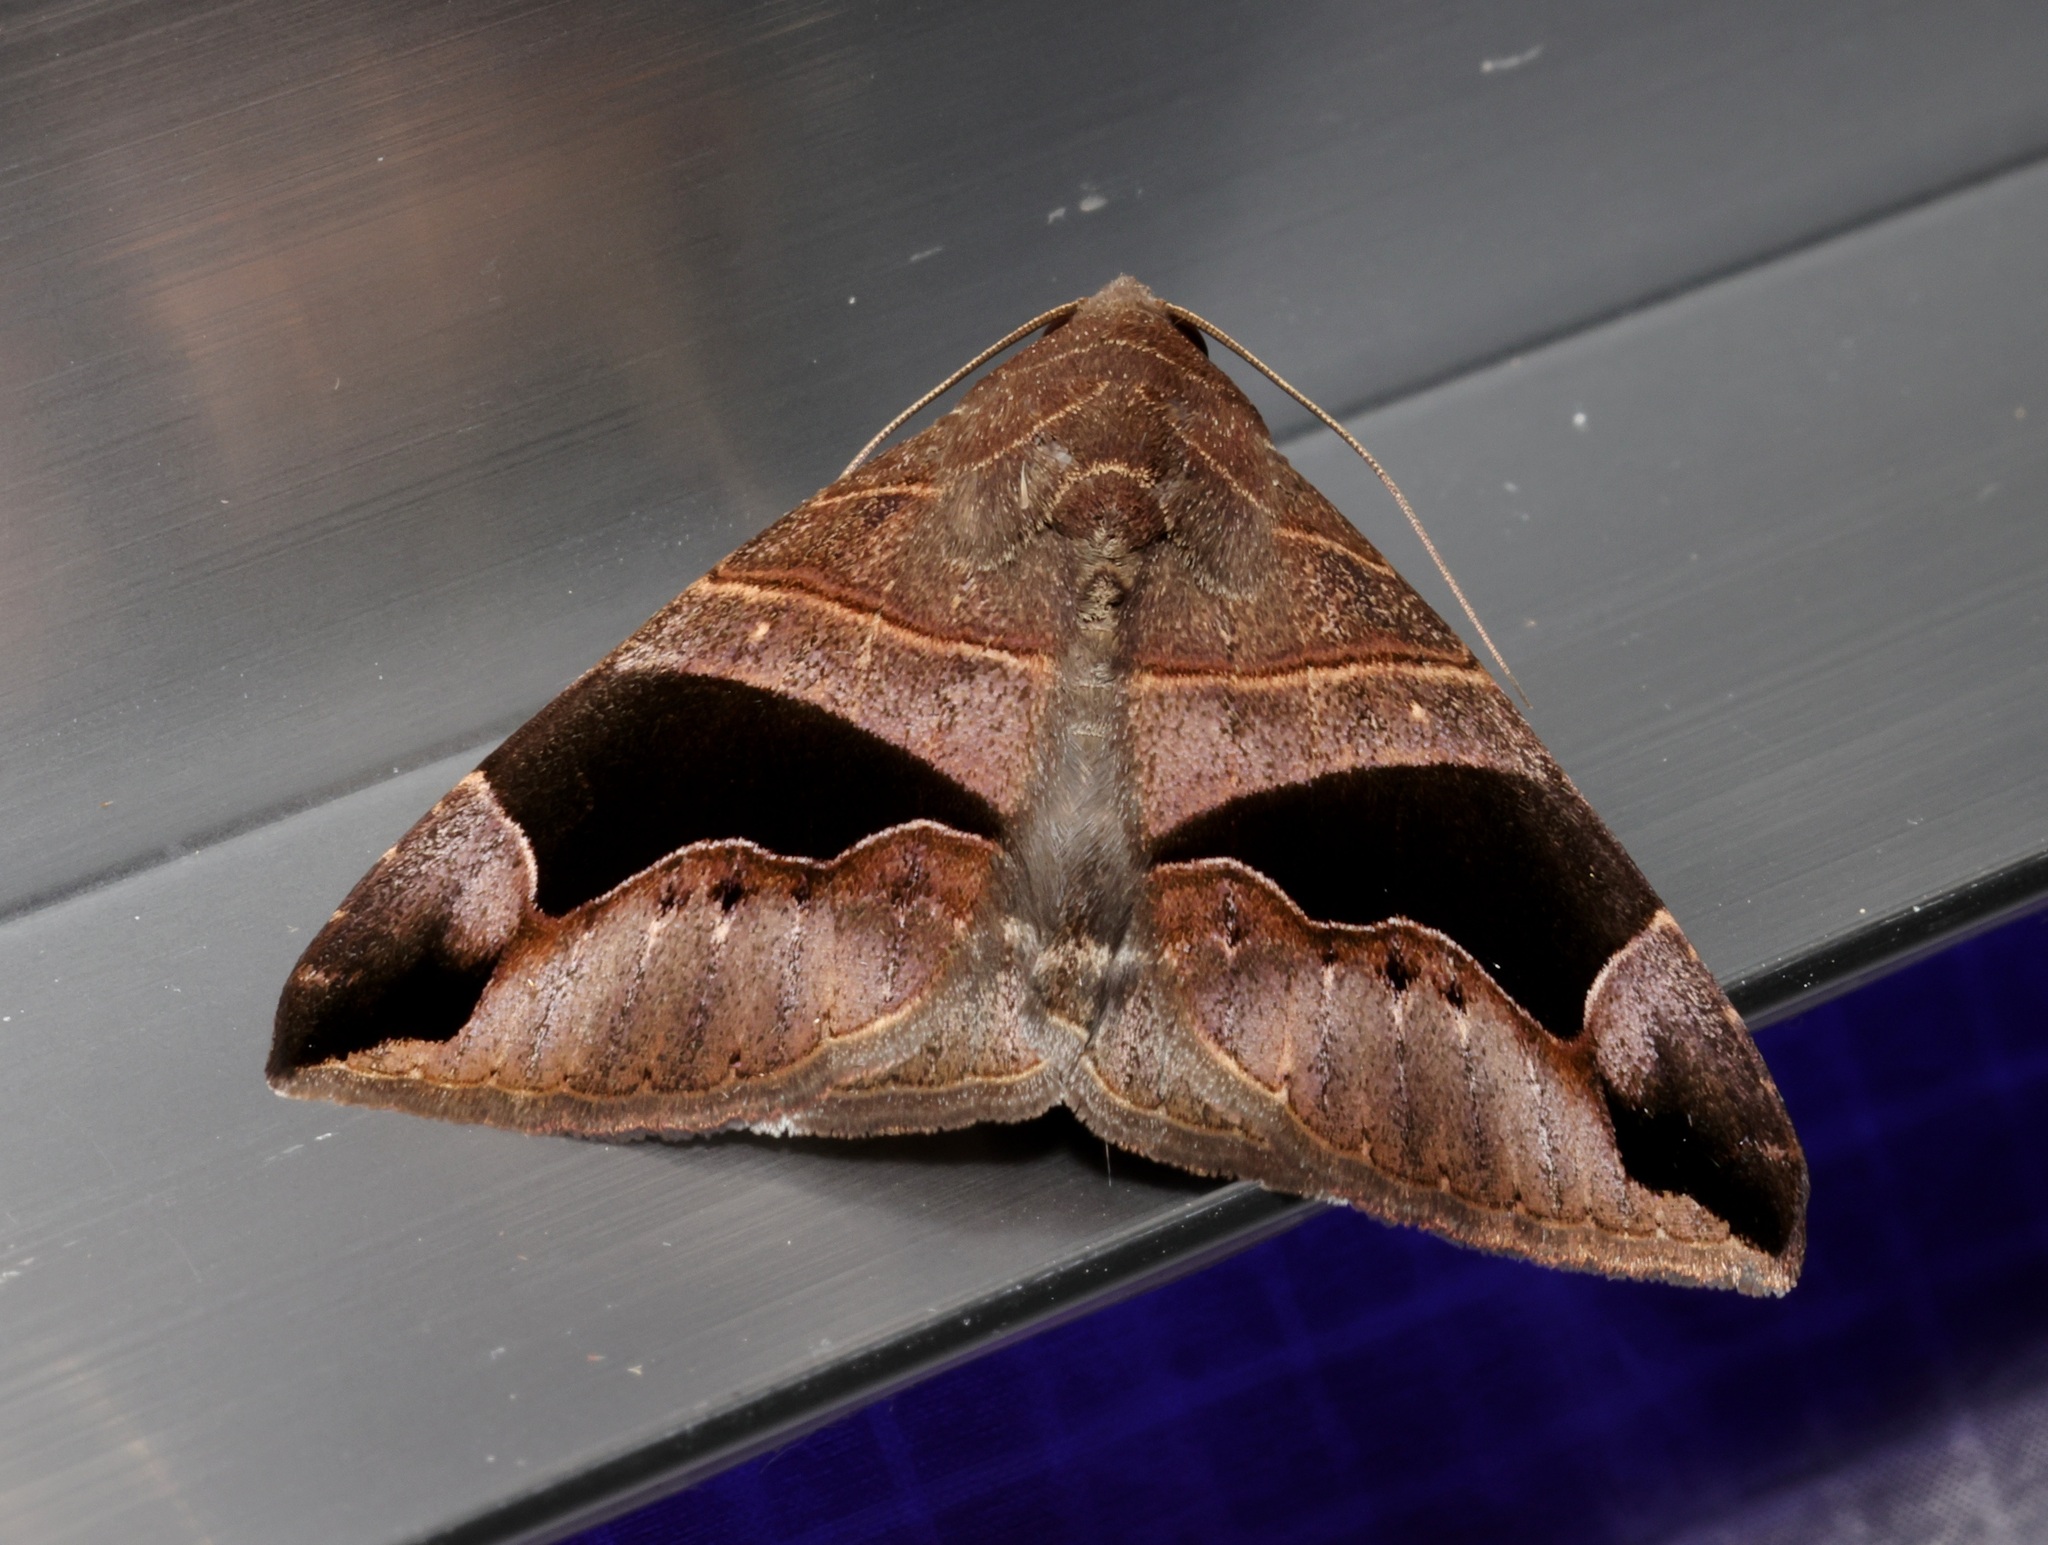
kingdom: Animalia
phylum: Arthropoda
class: Insecta
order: Lepidoptera
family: Erebidae
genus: Bastilla
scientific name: Bastilla joviana
